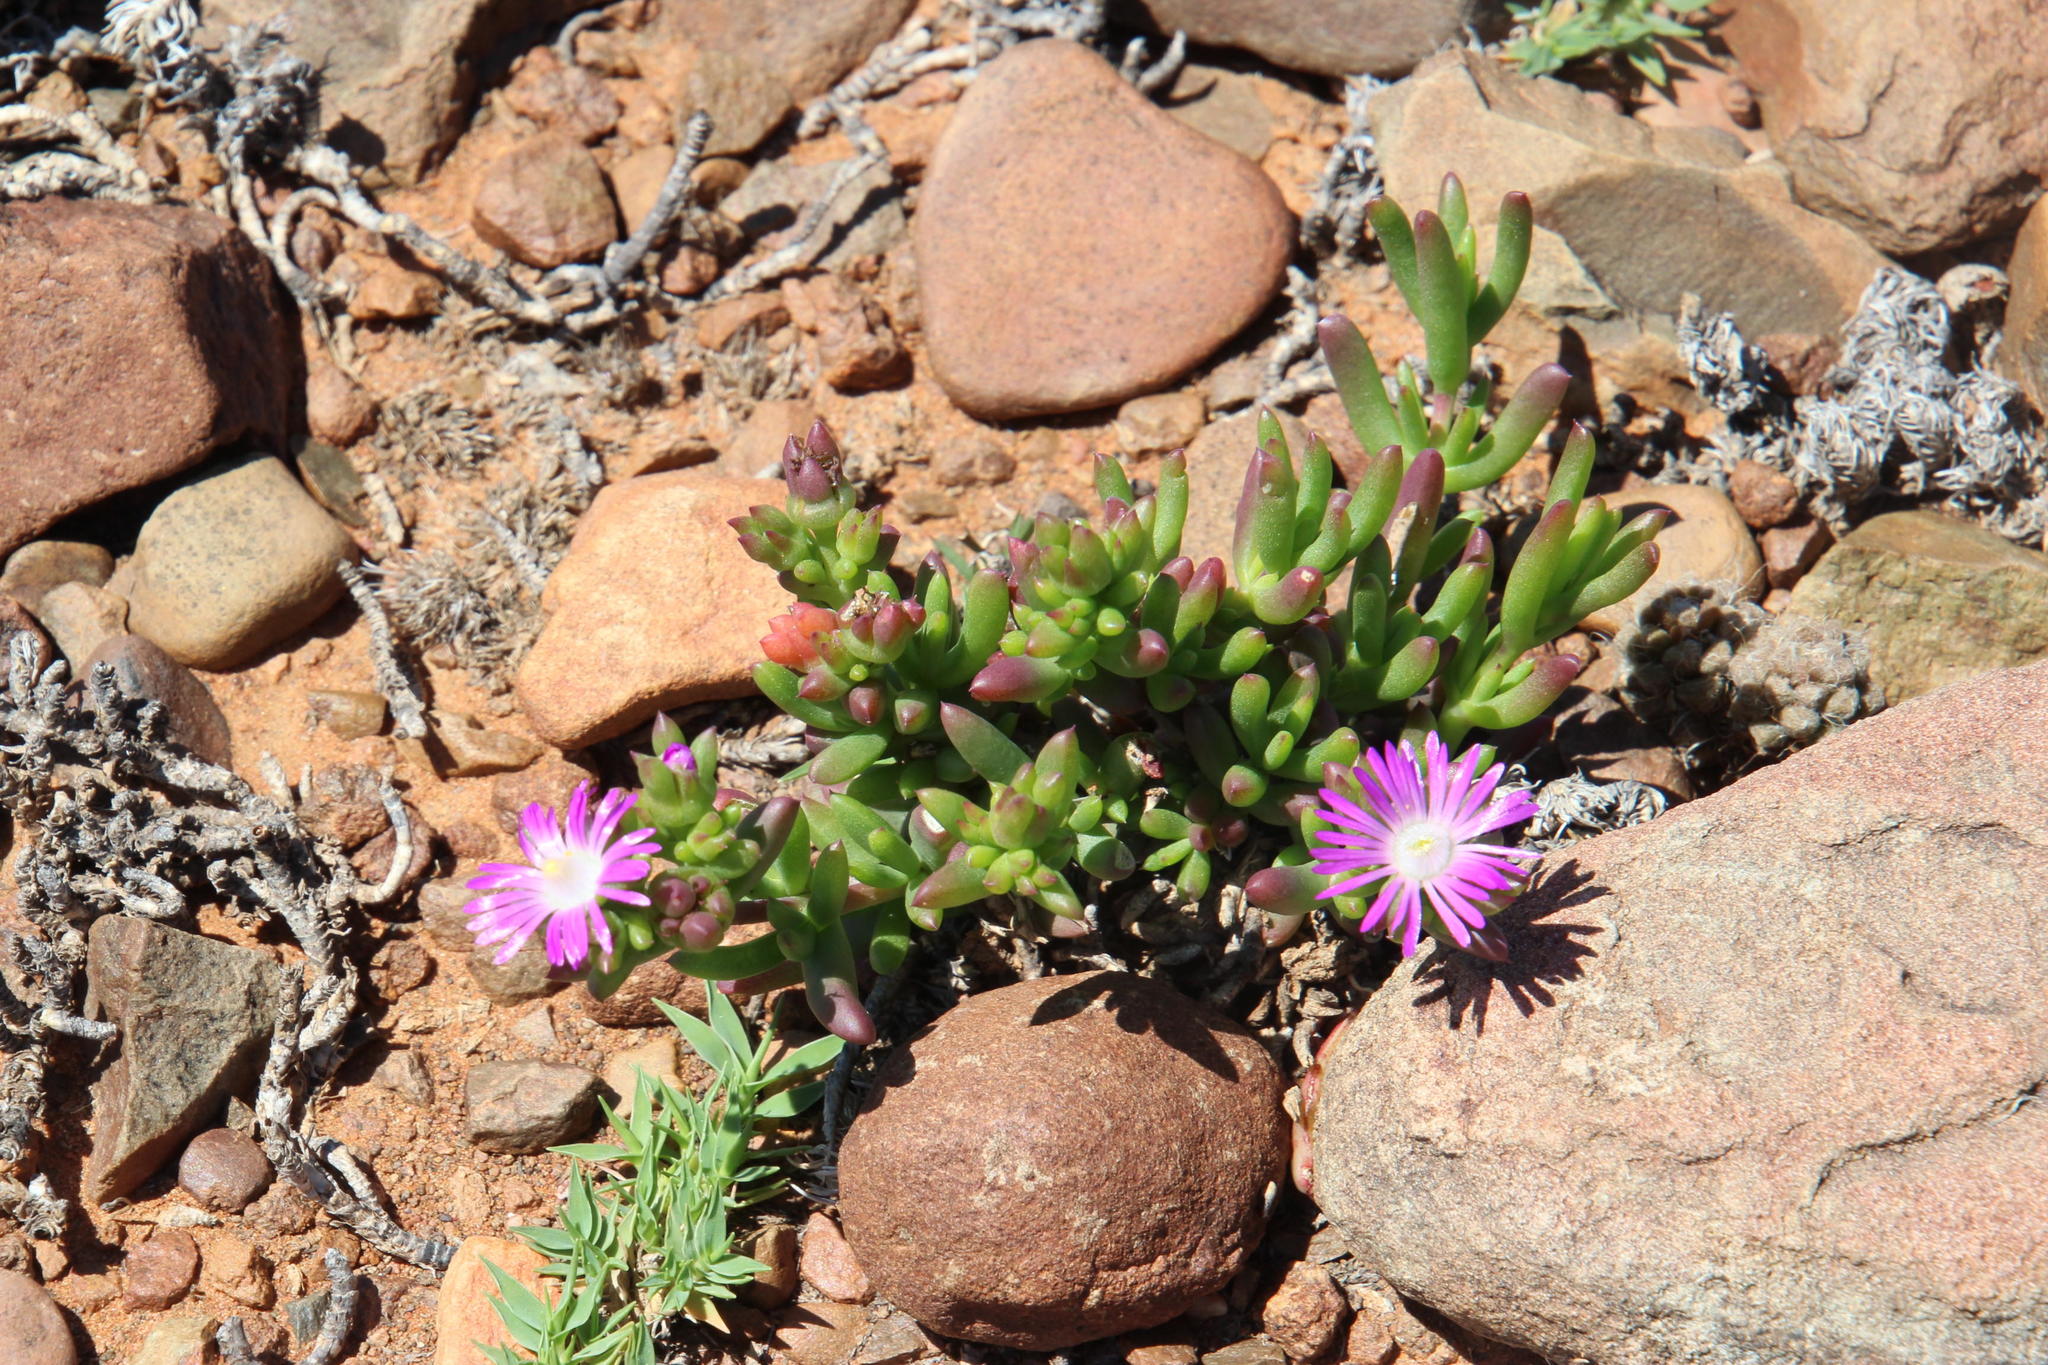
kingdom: Plantae
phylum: Tracheophyta
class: Magnoliopsida
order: Caryophyllales
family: Aizoaceae
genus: Delosperma
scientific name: Delosperma peersii
